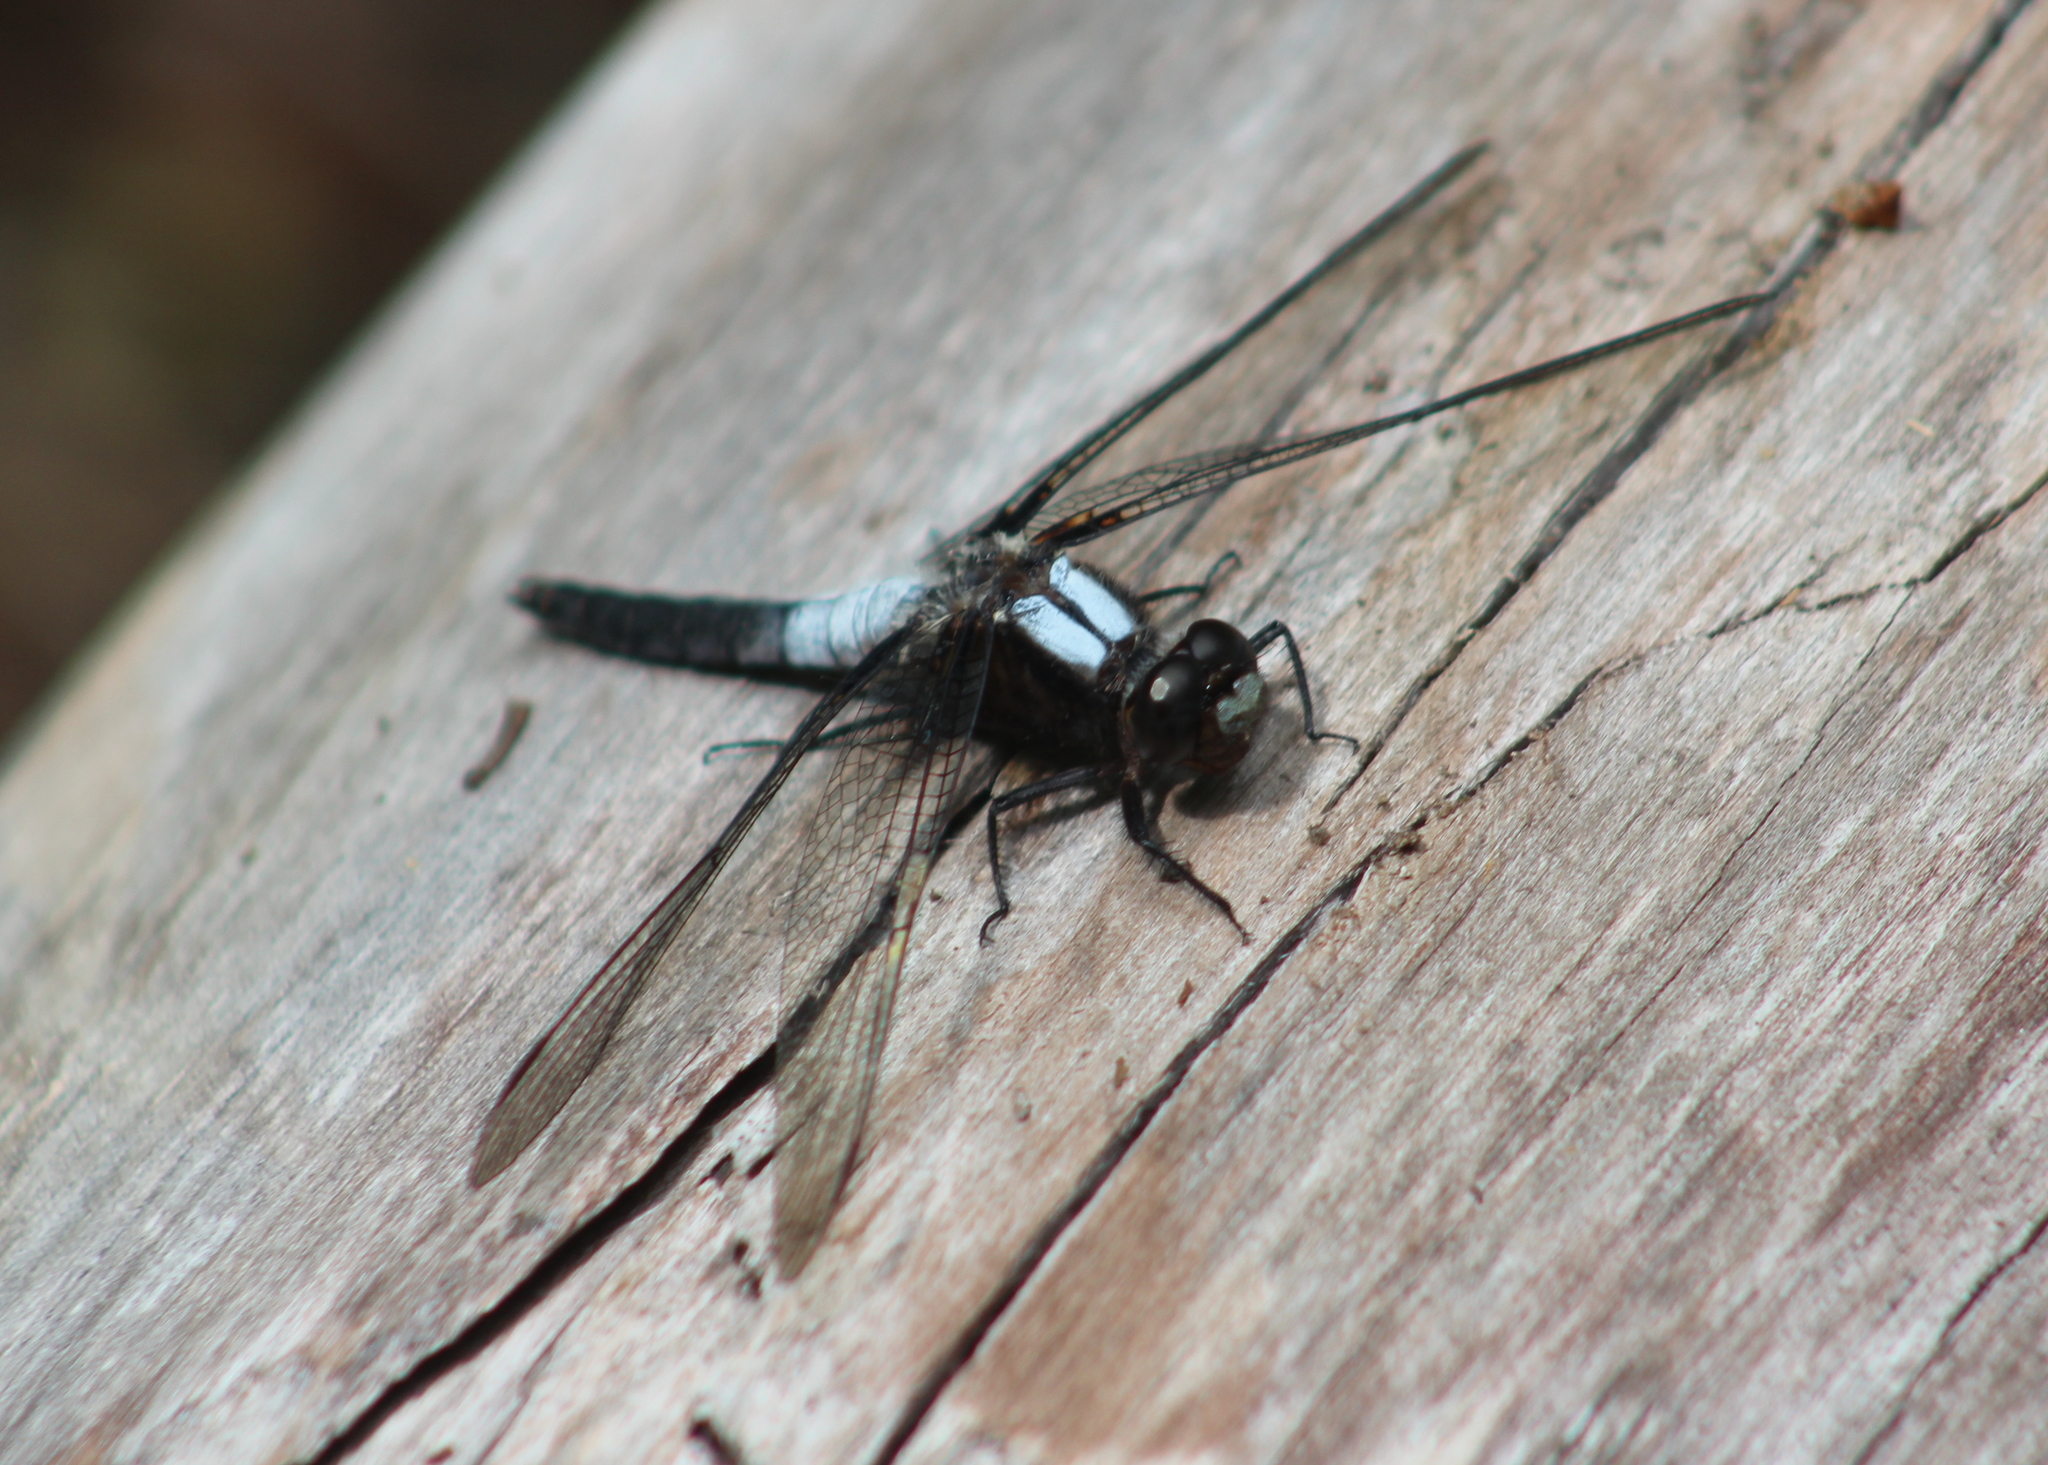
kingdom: Animalia
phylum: Arthropoda
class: Insecta
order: Odonata
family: Libellulidae
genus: Ladona
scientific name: Ladona julia
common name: Chalk-fronted corporal
